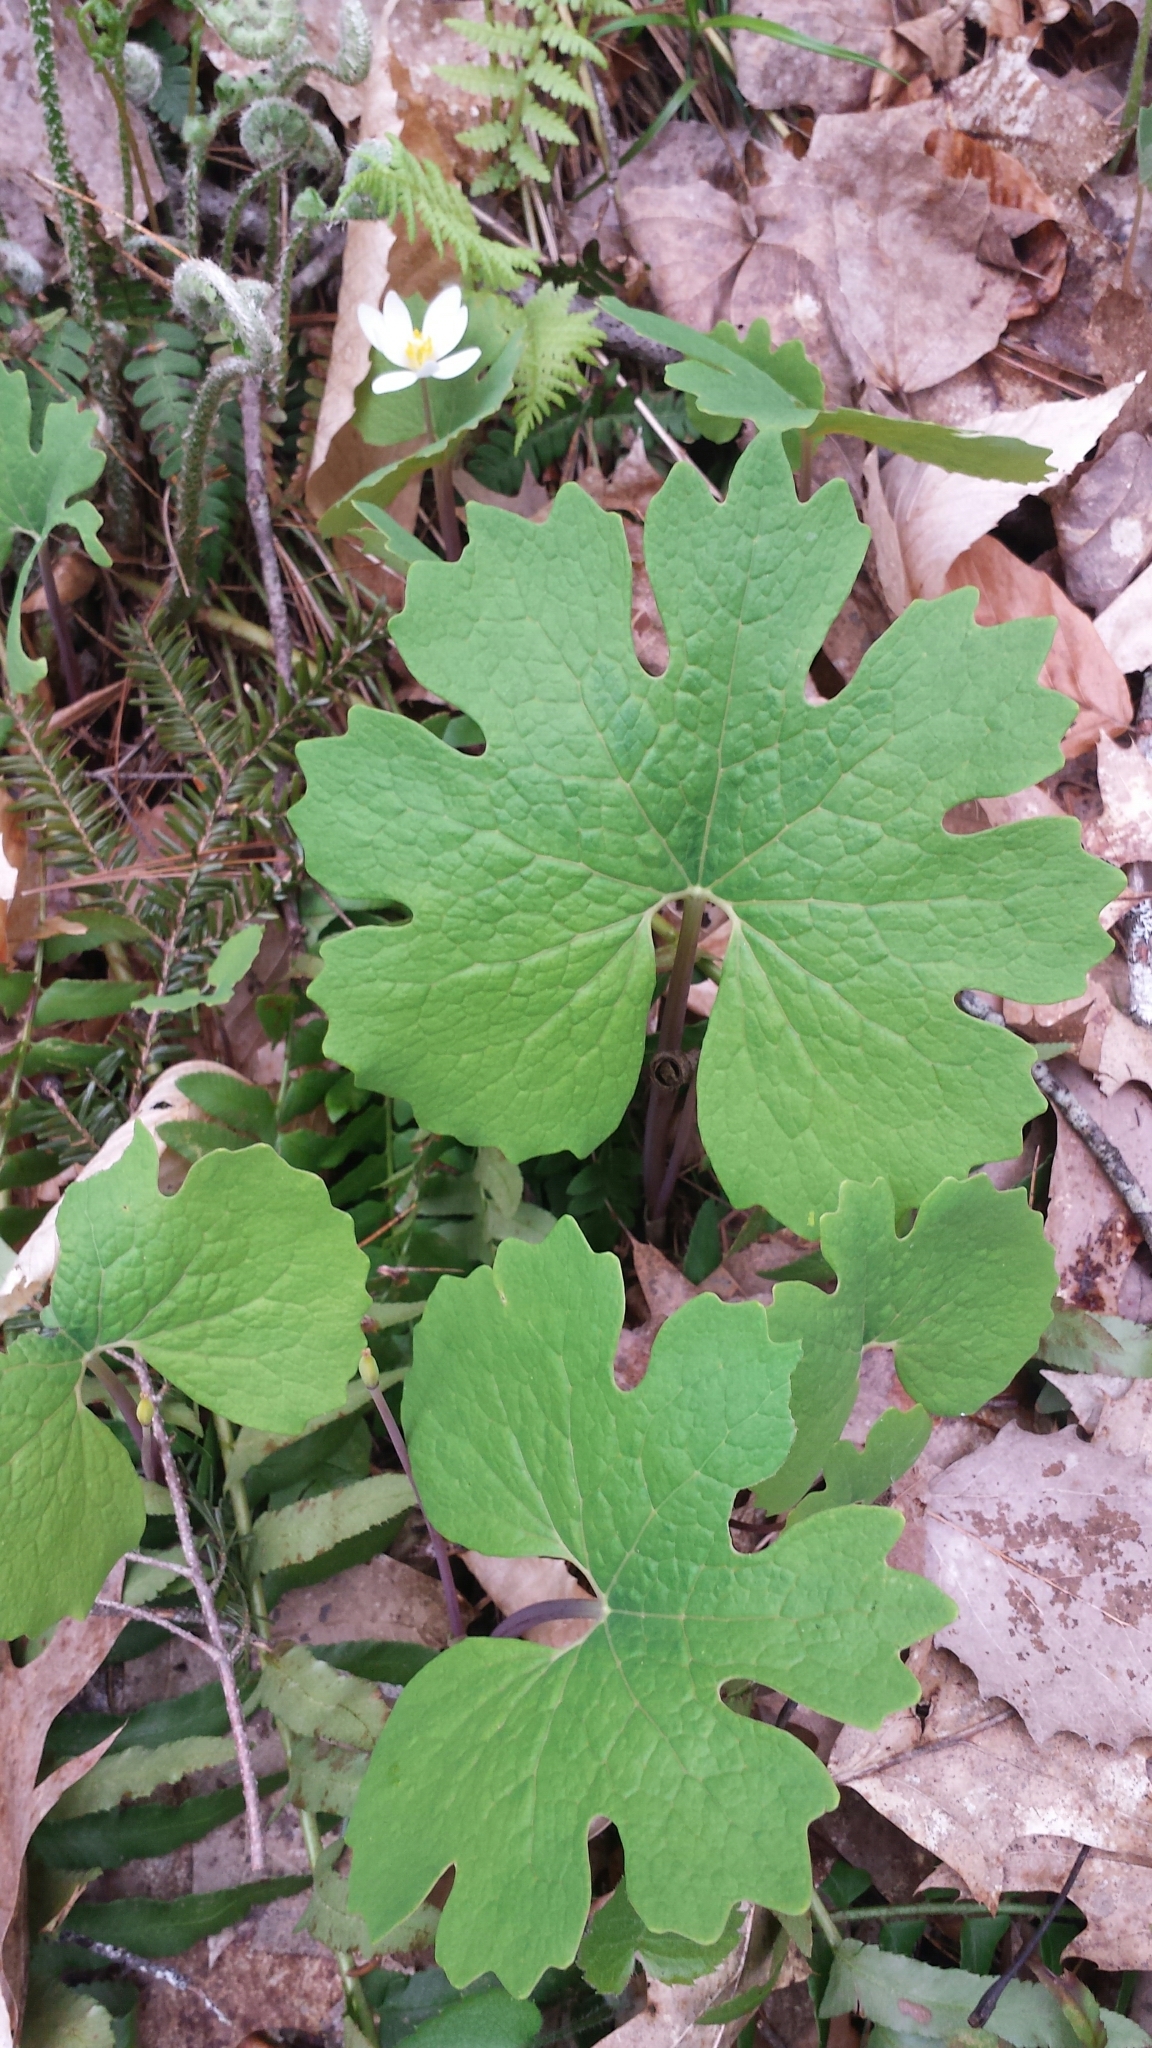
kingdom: Plantae
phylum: Tracheophyta
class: Magnoliopsida
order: Ranunculales
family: Papaveraceae
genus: Sanguinaria
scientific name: Sanguinaria canadensis
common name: Bloodroot
